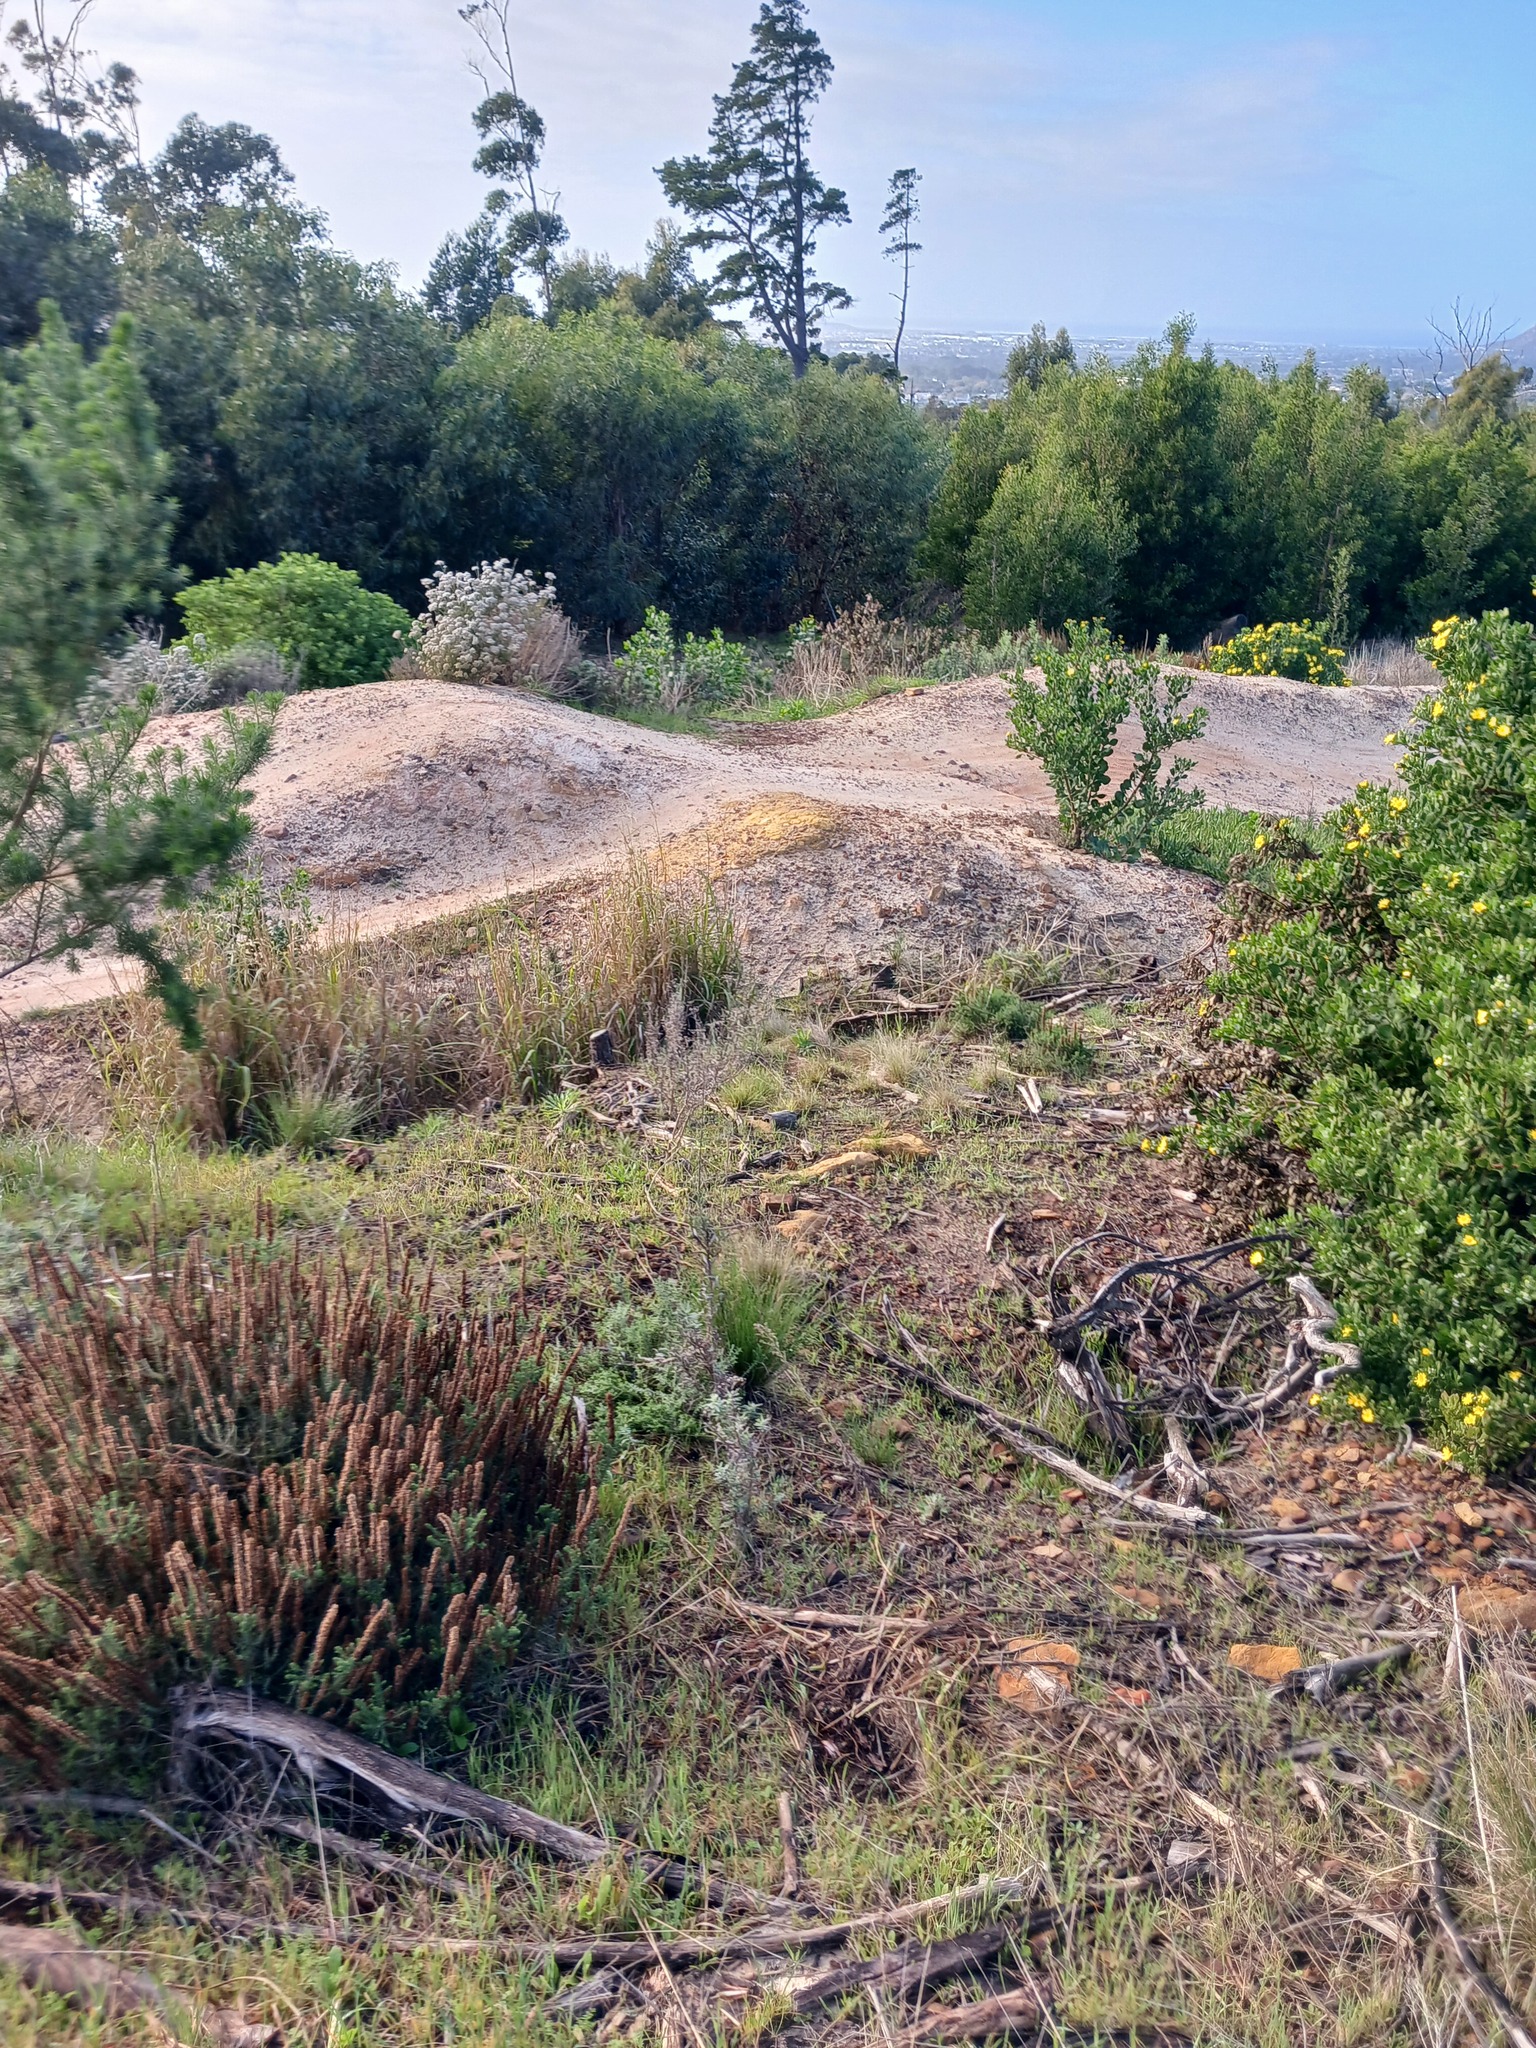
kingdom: Plantae
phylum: Tracheophyta
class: Magnoliopsida
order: Asterales
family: Asteraceae
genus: Seriphium
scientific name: Seriphium cinereum
